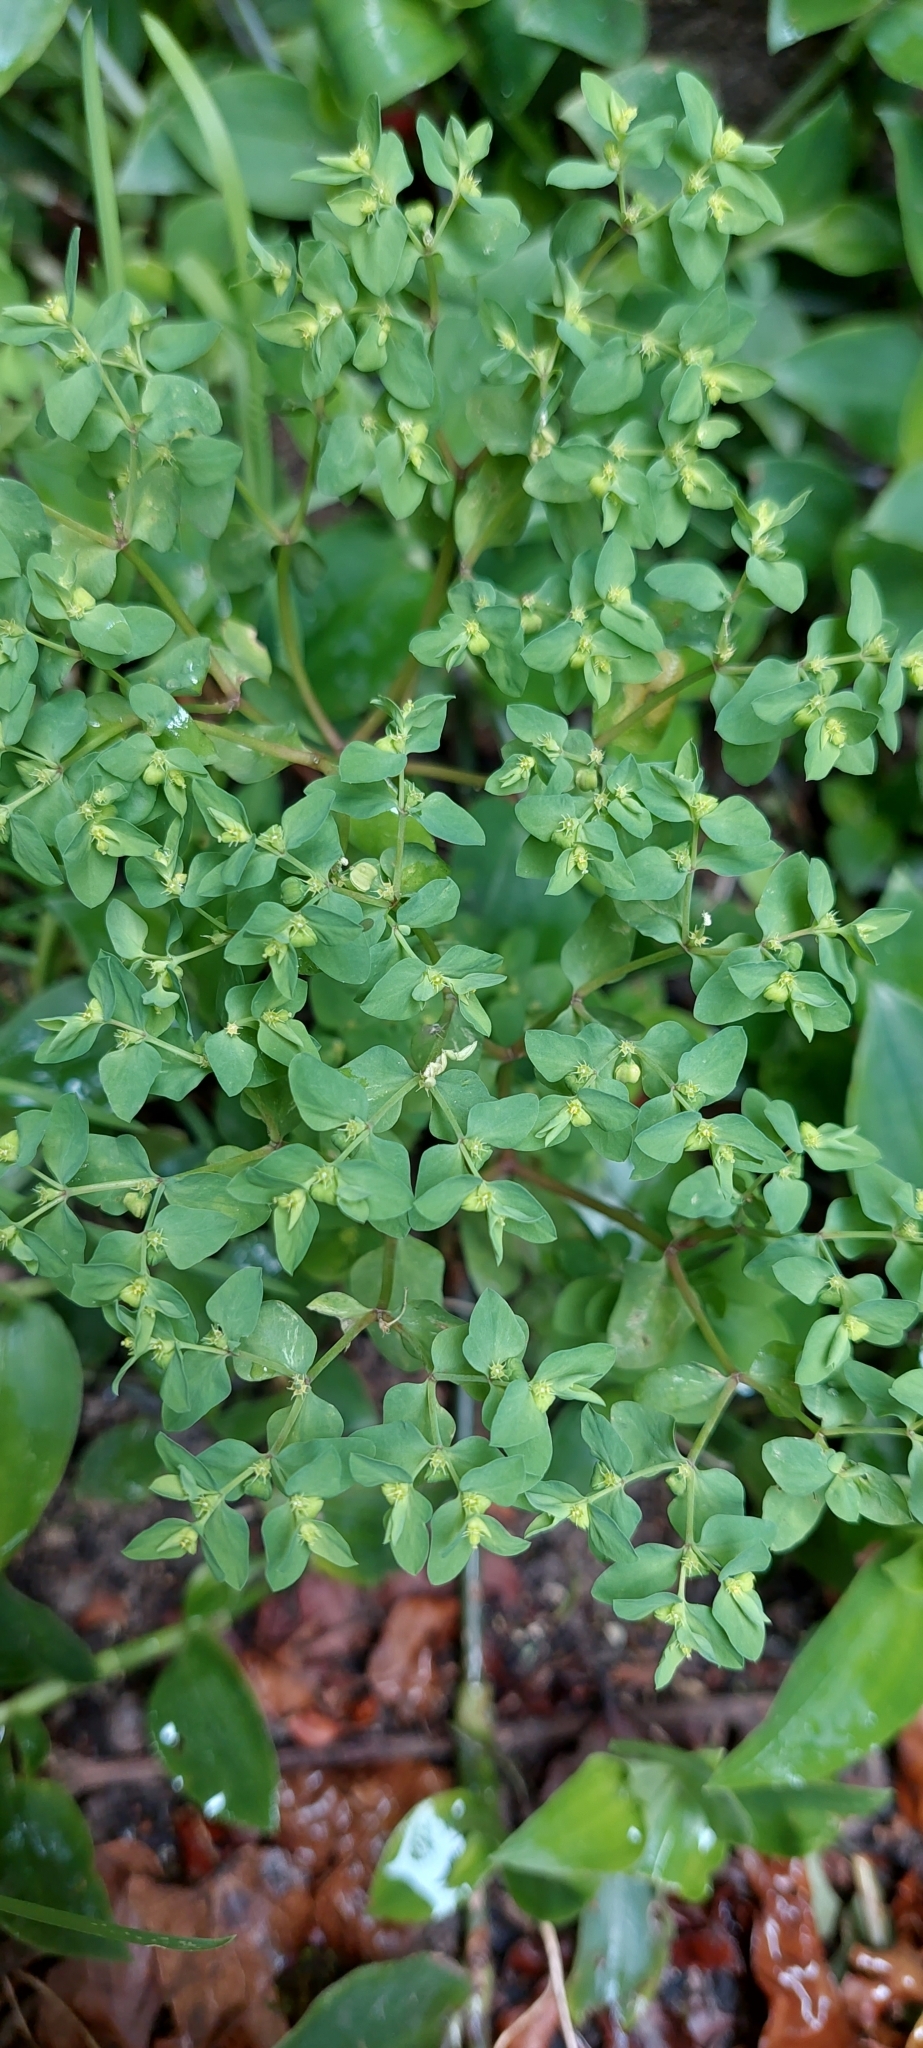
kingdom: Plantae
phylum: Tracheophyta
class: Magnoliopsida
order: Malpighiales
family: Euphorbiaceae
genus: Euphorbia
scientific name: Euphorbia peplus
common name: Petty spurge
